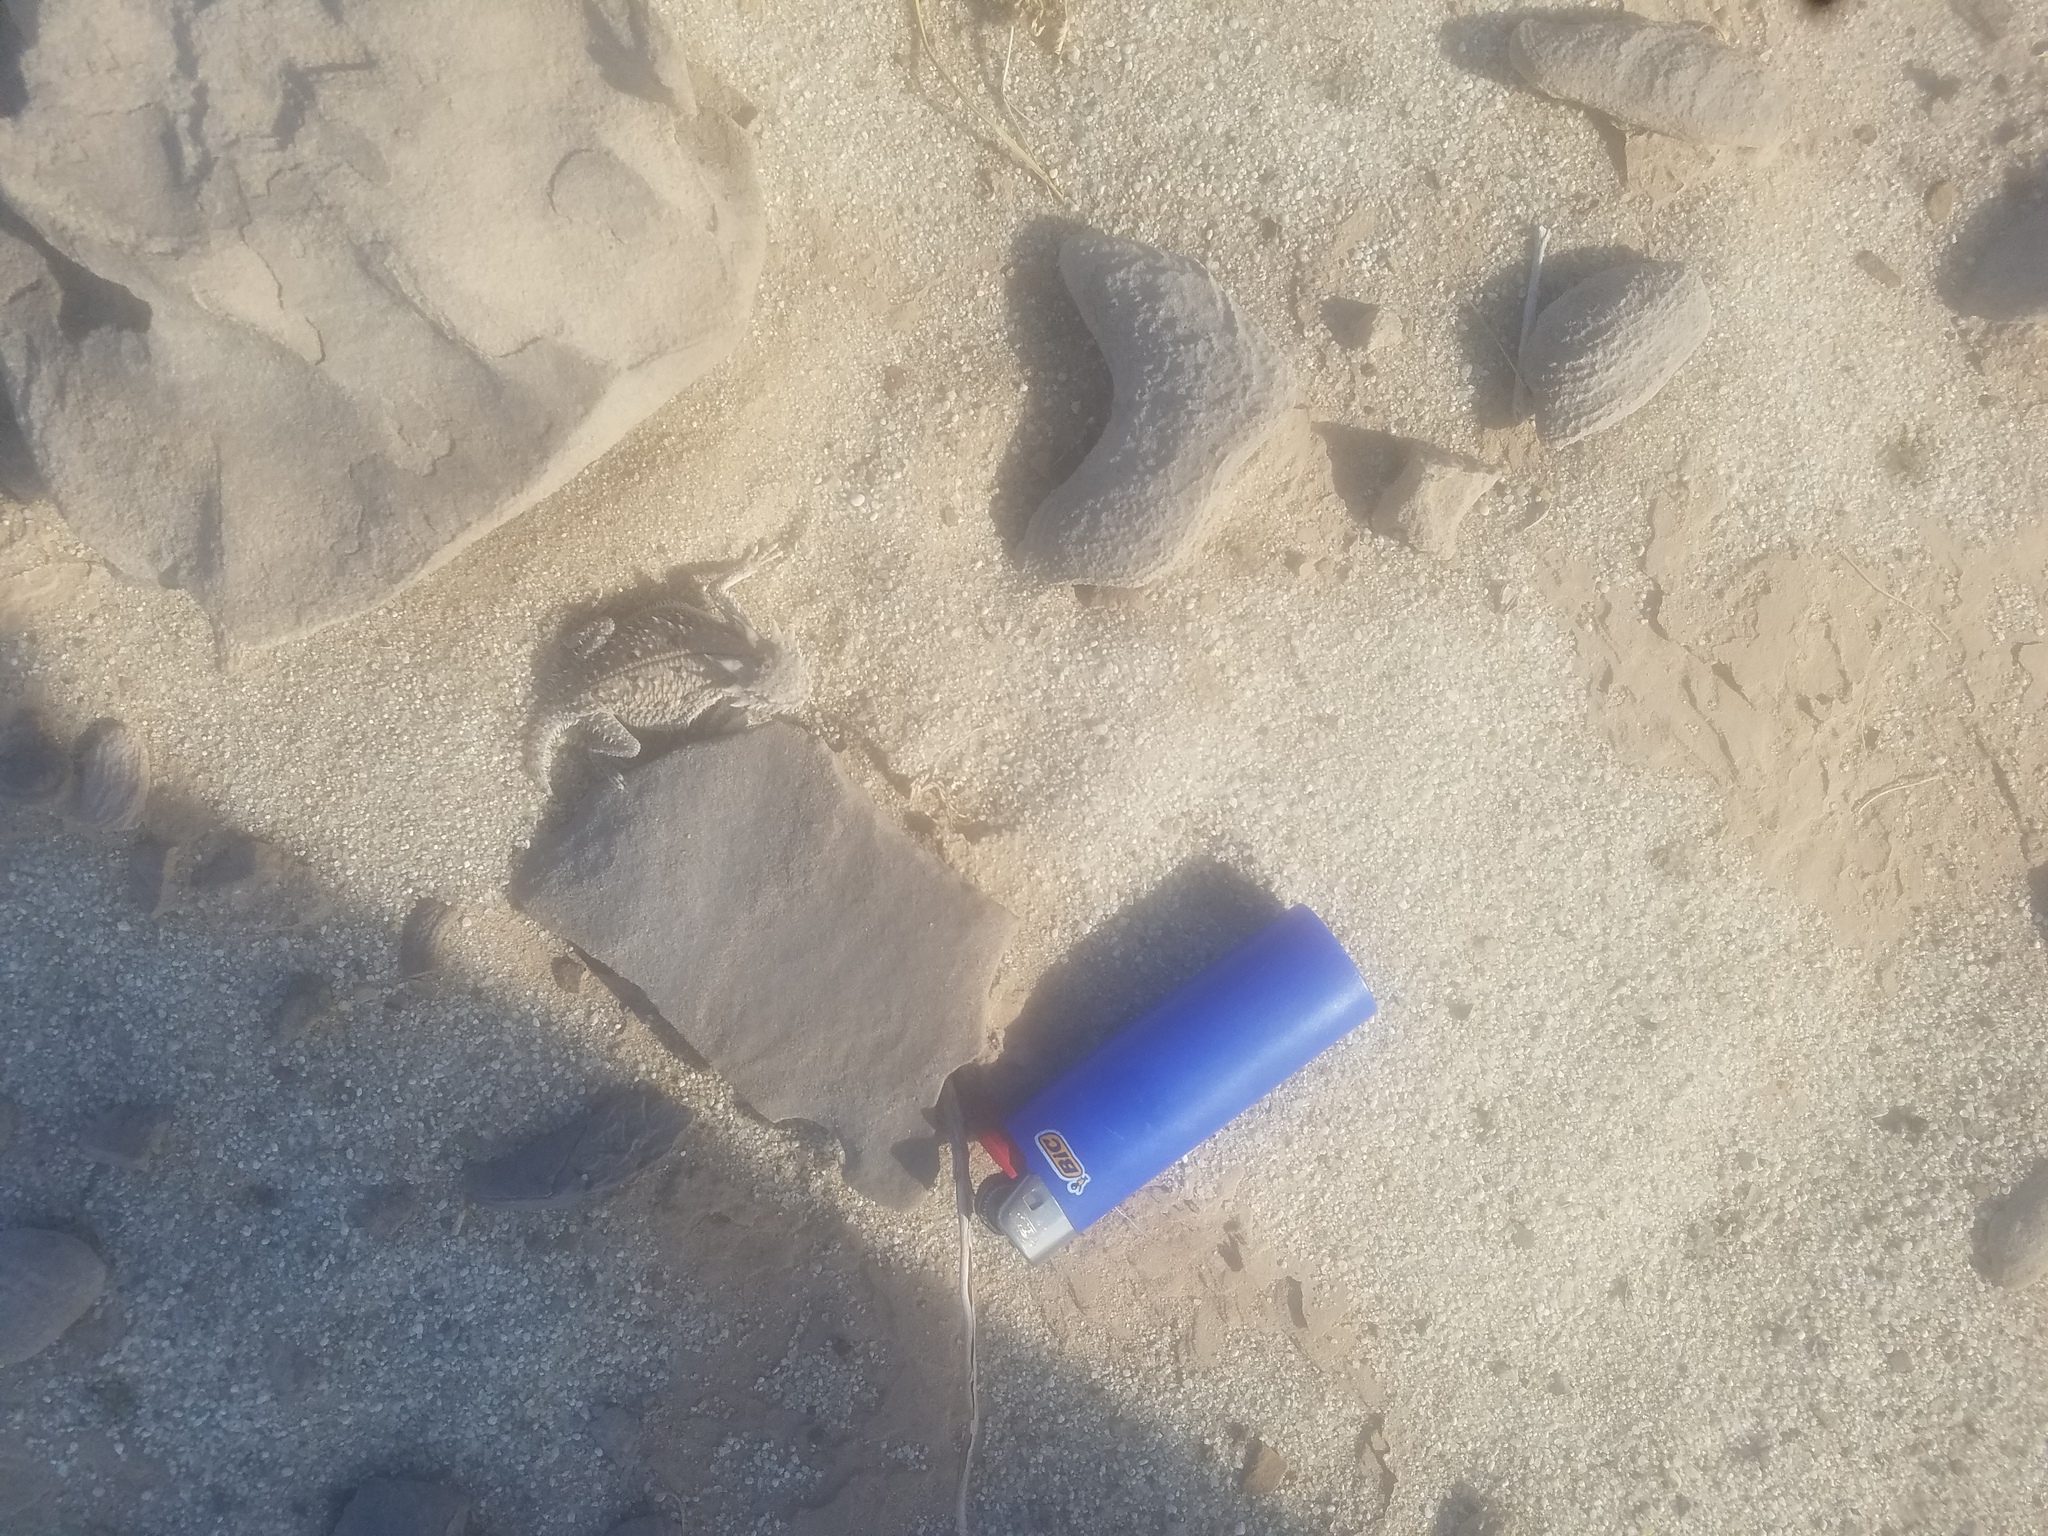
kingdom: Animalia
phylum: Chordata
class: Squamata
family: Phrynosomatidae
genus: Phrynosoma
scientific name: Phrynosoma mcallii
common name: Flat-tailed horned lizard
